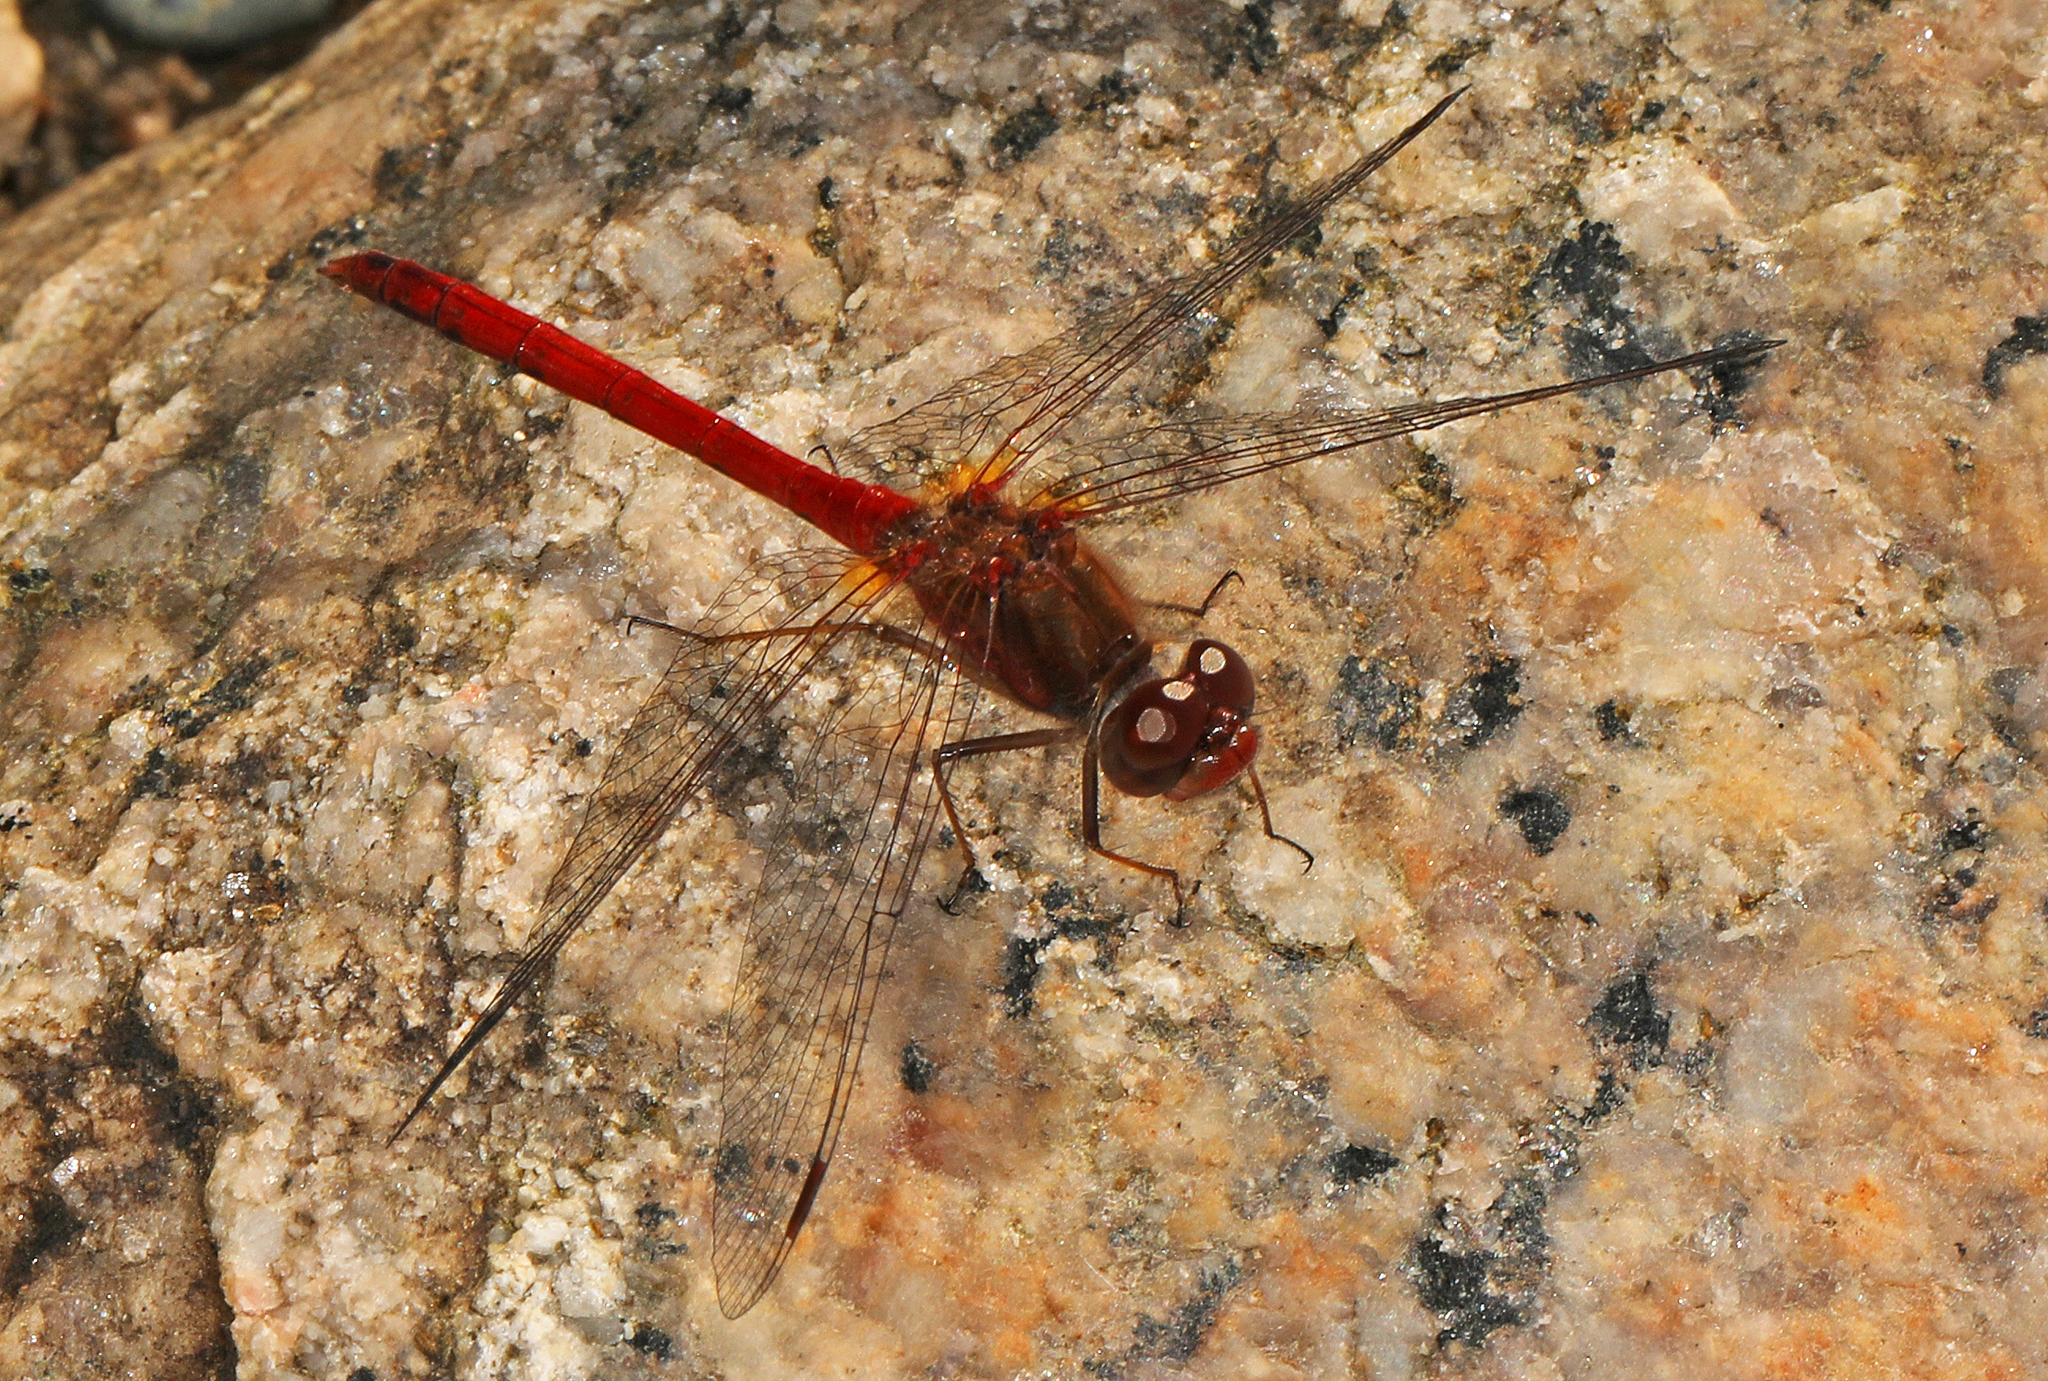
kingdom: Animalia
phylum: Arthropoda
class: Insecta
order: Odonata
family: Libellulidae
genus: Sympetrum
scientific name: Sympetrum vicinum
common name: Autumn meadowhawk
